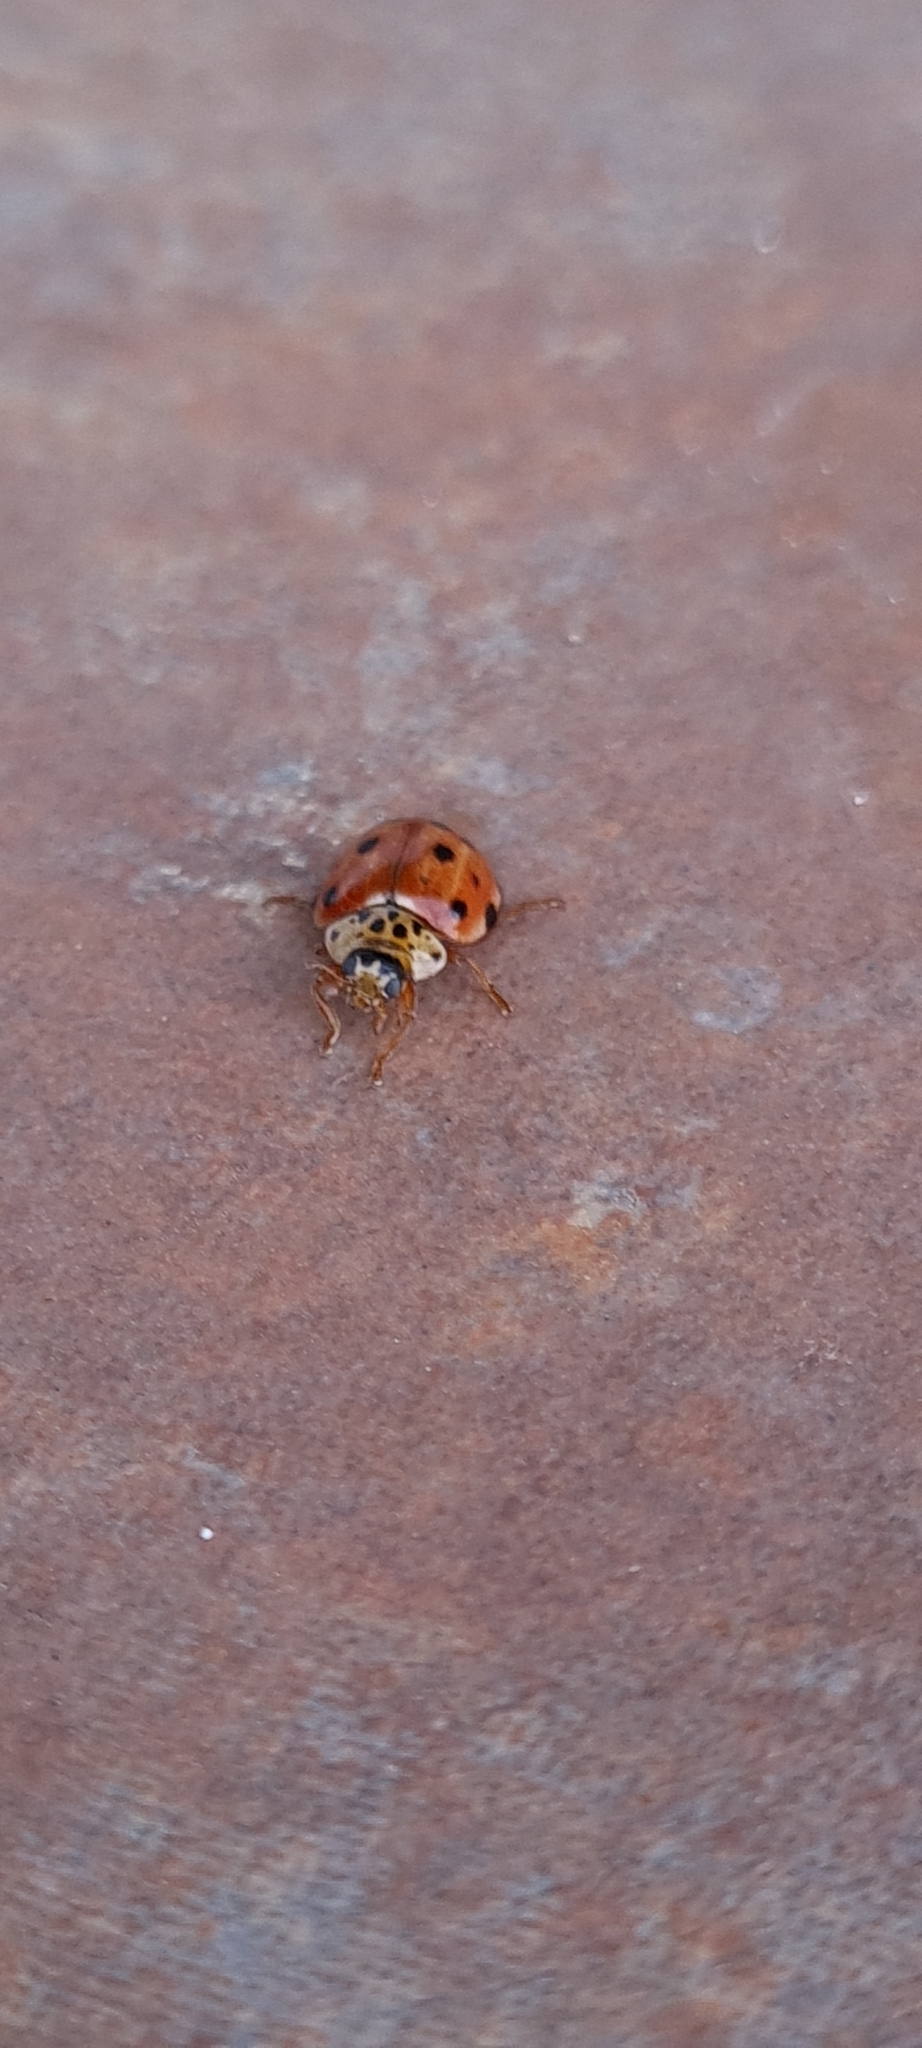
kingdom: Animalia
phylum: Arthropoda
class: Insecta
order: Coleoptera
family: Coccinellidae
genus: Harmonia
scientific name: Harmonia quadripunctata
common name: Cream-streaked ladybird
